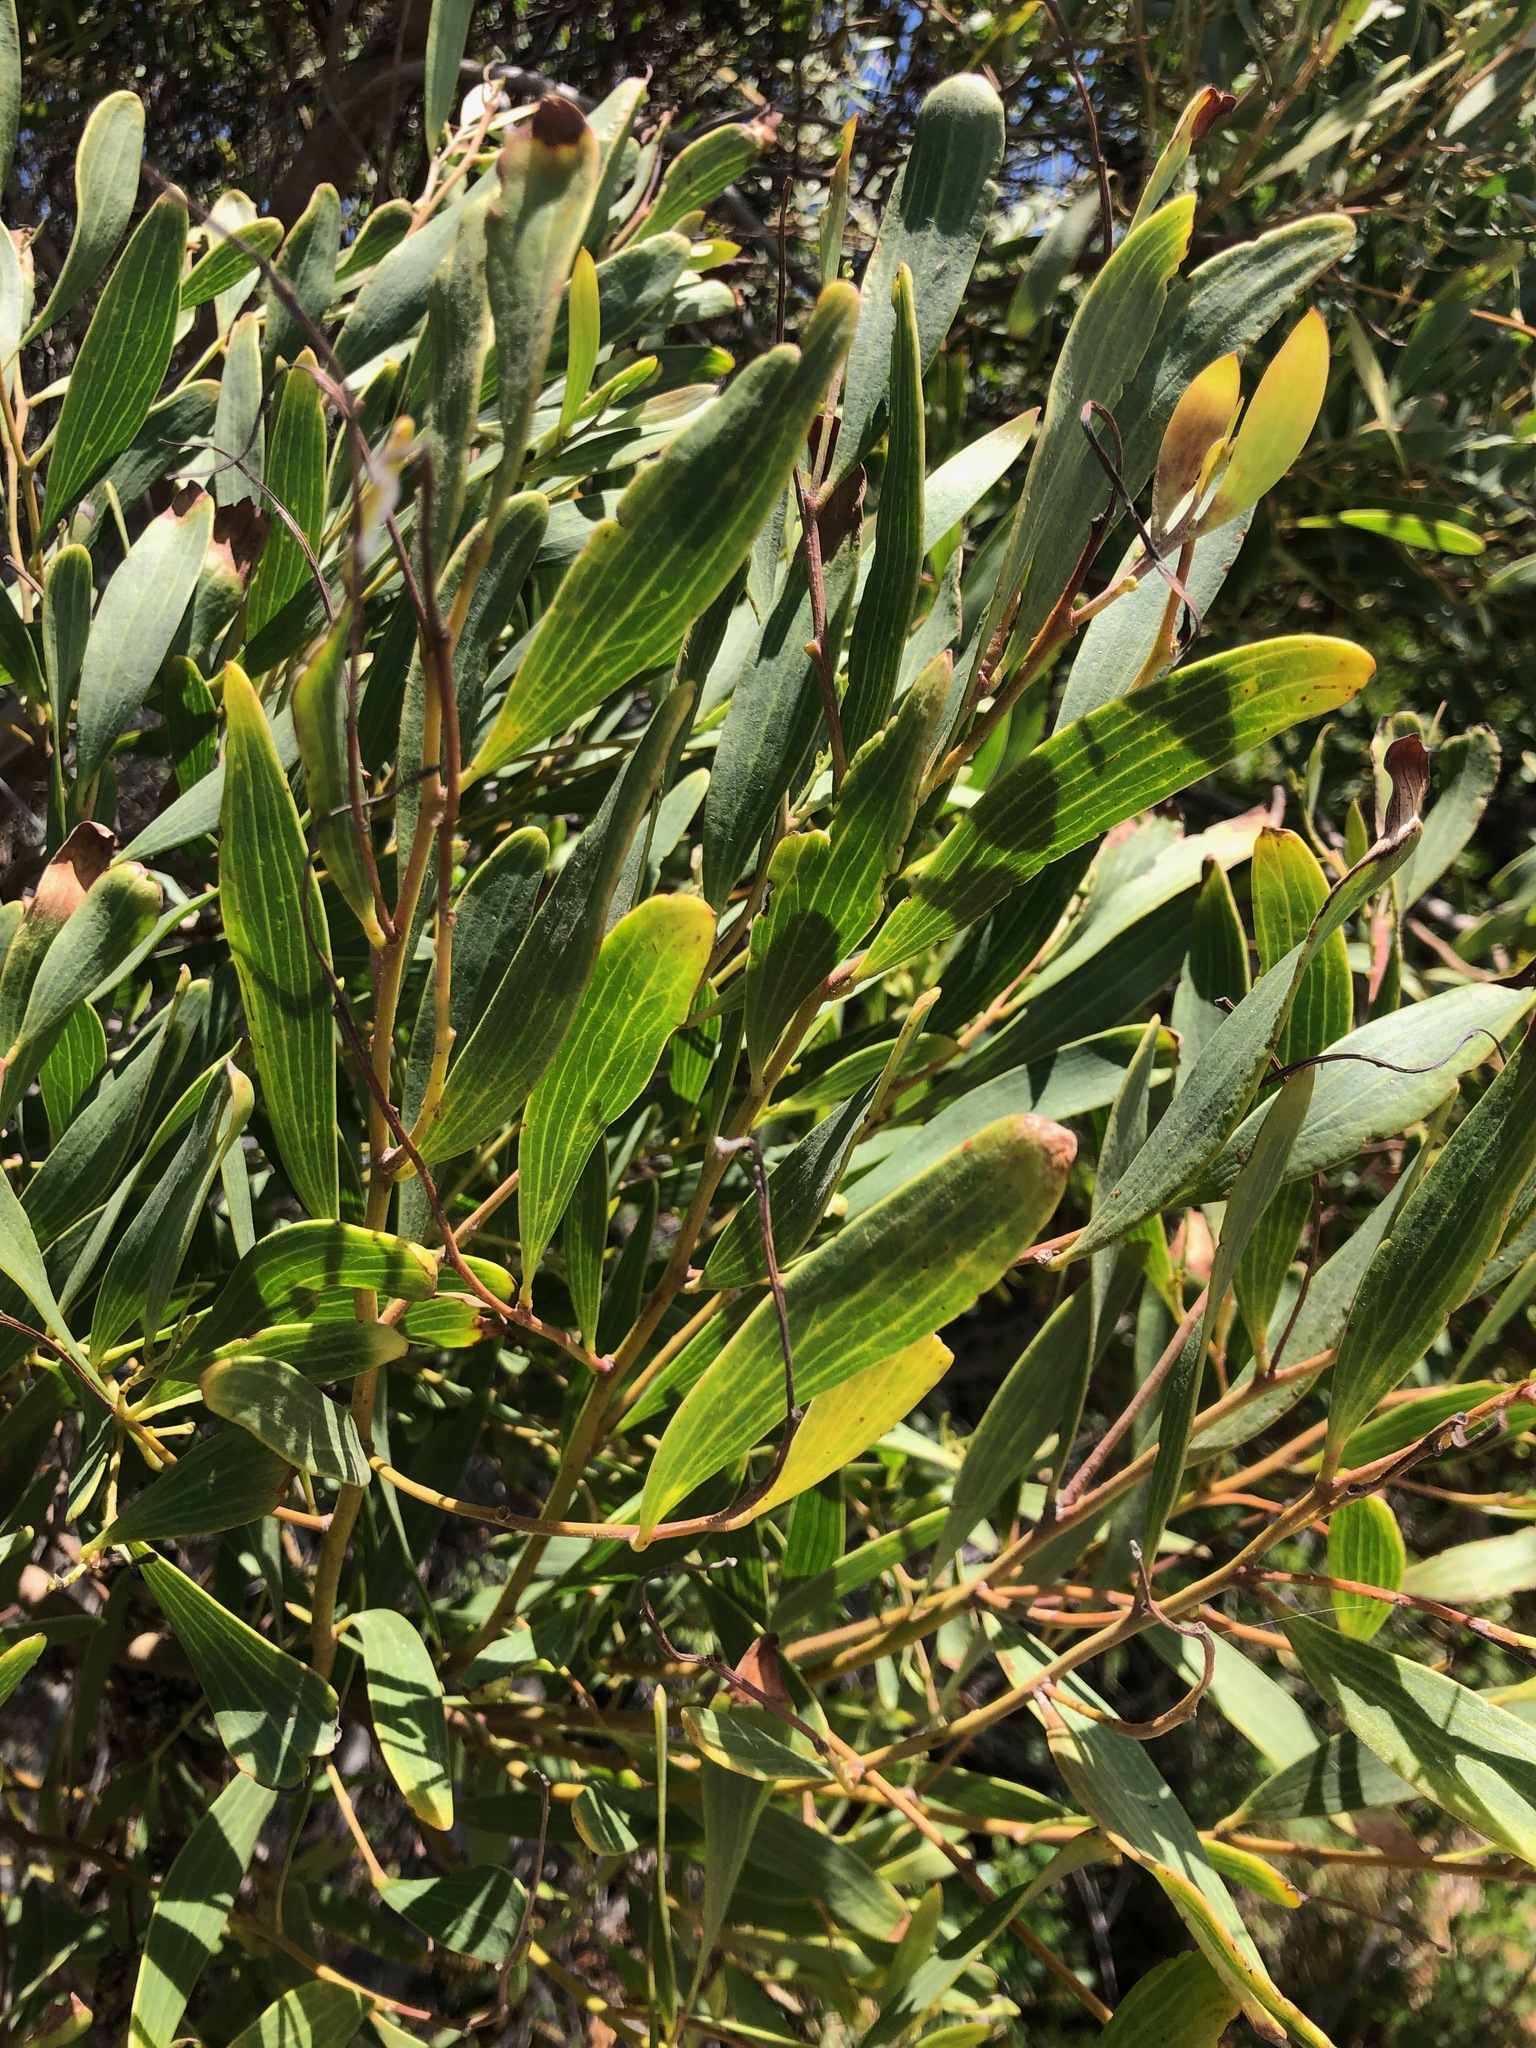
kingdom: Plantae
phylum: Tracheophyta
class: Magnoliopsida
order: Fabales
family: Fabaceae
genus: Acacia
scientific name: Acacia cyclops
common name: Coastal wattle
